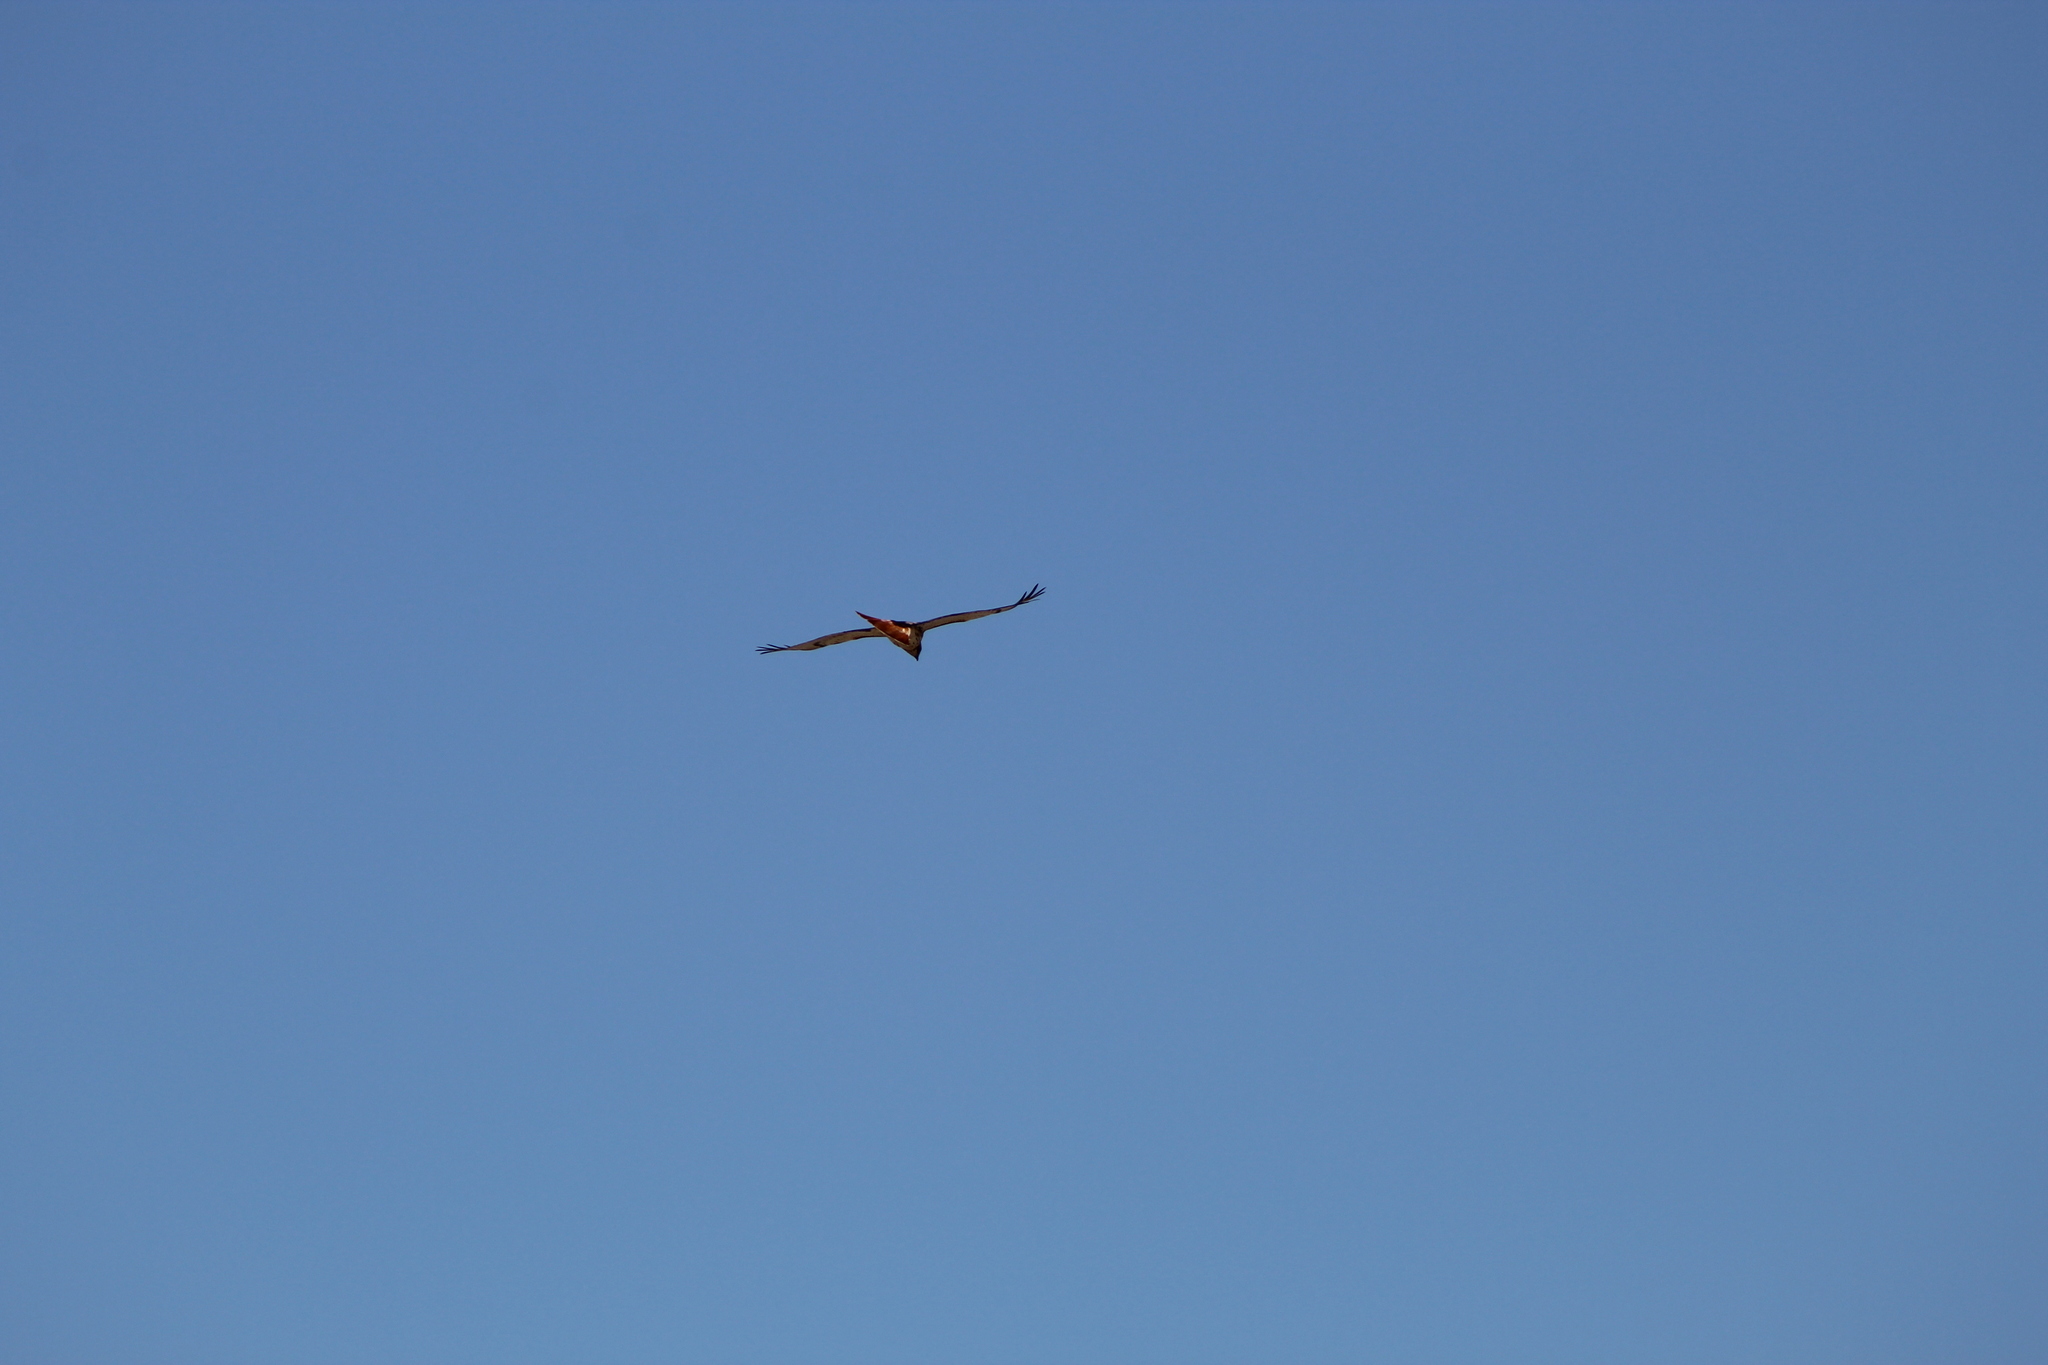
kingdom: Animalia
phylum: Chordata
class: Aves
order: Accipitriformes
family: Accipitridae
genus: Buteo
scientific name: Buteo jamaicensis
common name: Red-tailed hawk
